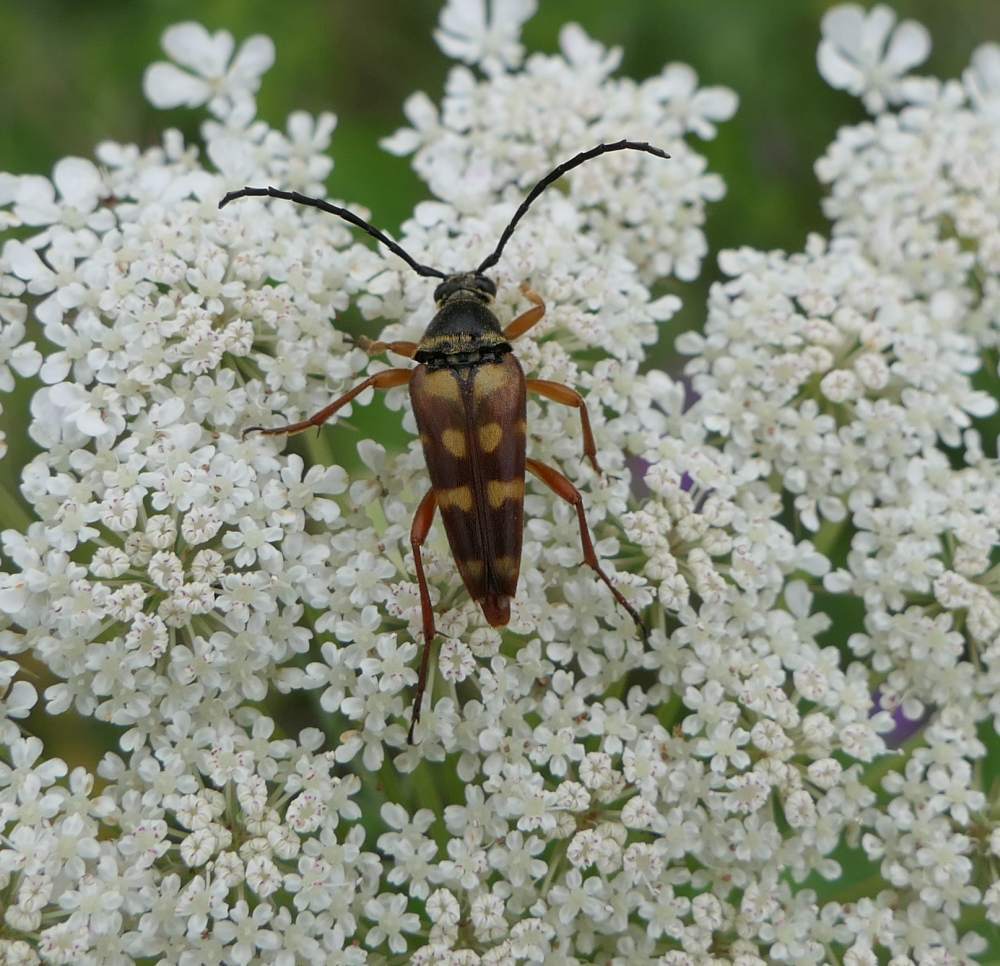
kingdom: Animalia
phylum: Arthropoda
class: Insecta
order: Coleoptera
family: Cerambycidae
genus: Typocerus
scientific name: Typocerus velutinus
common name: Banded longhorn beetle
